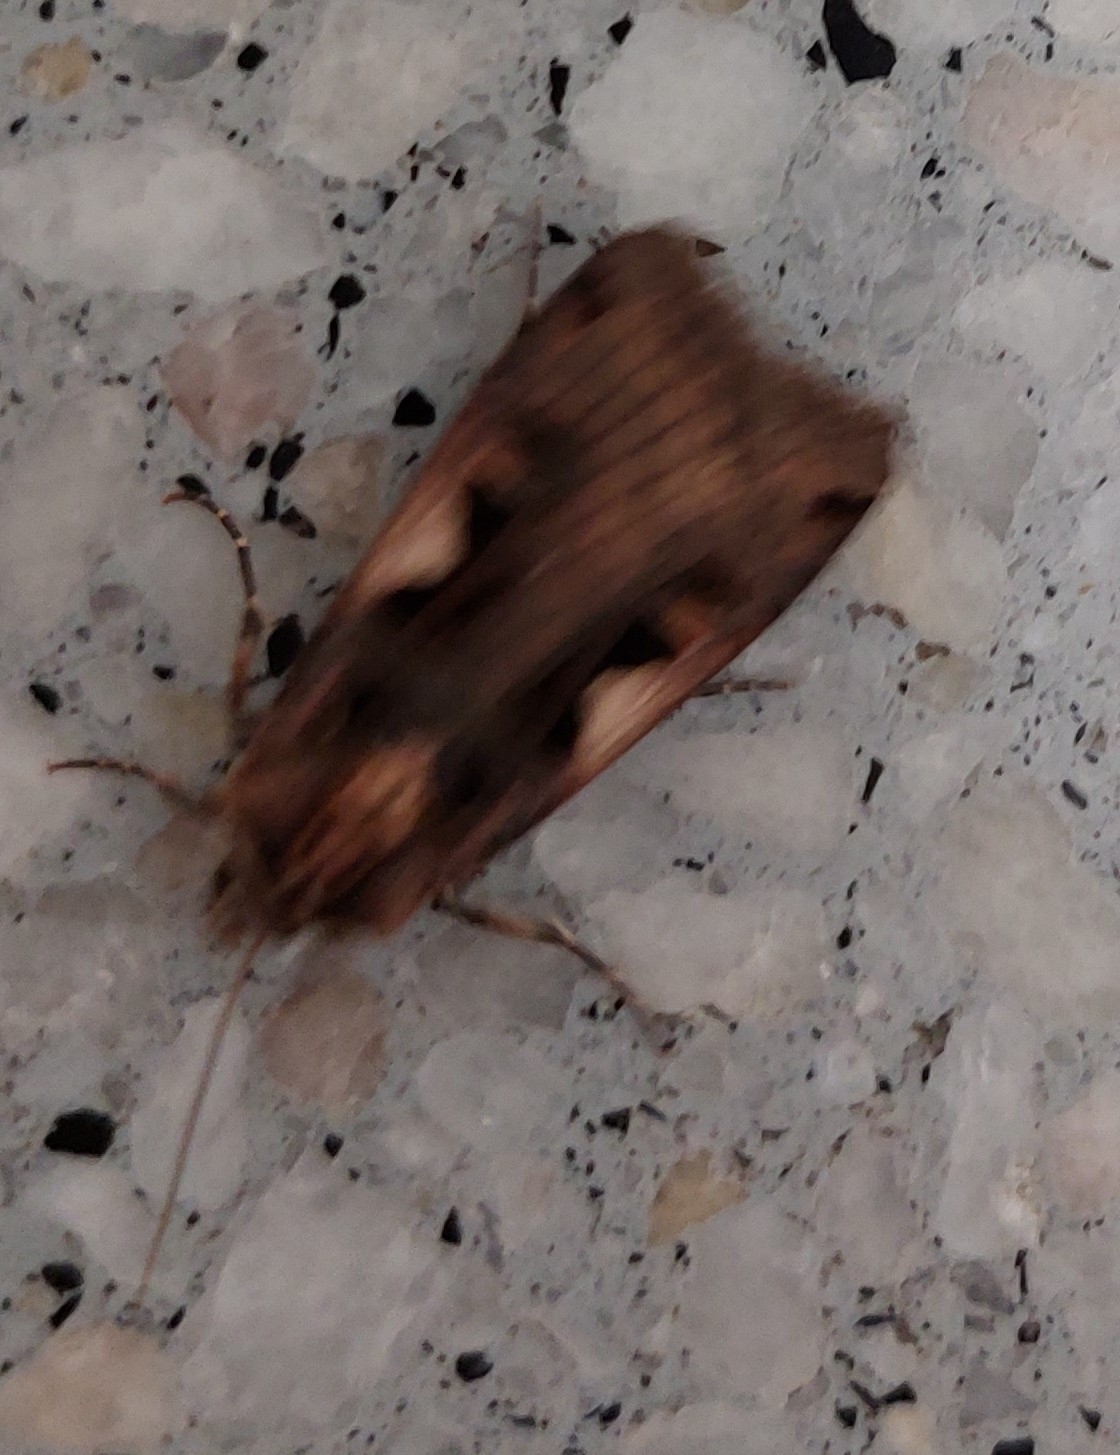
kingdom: Animalia
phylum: Arthropoda
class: Insecta
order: Lepidoptera
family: Noctuidae
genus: Xestia
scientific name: Xestia c-nigrum
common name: Setaceous hebrew character
